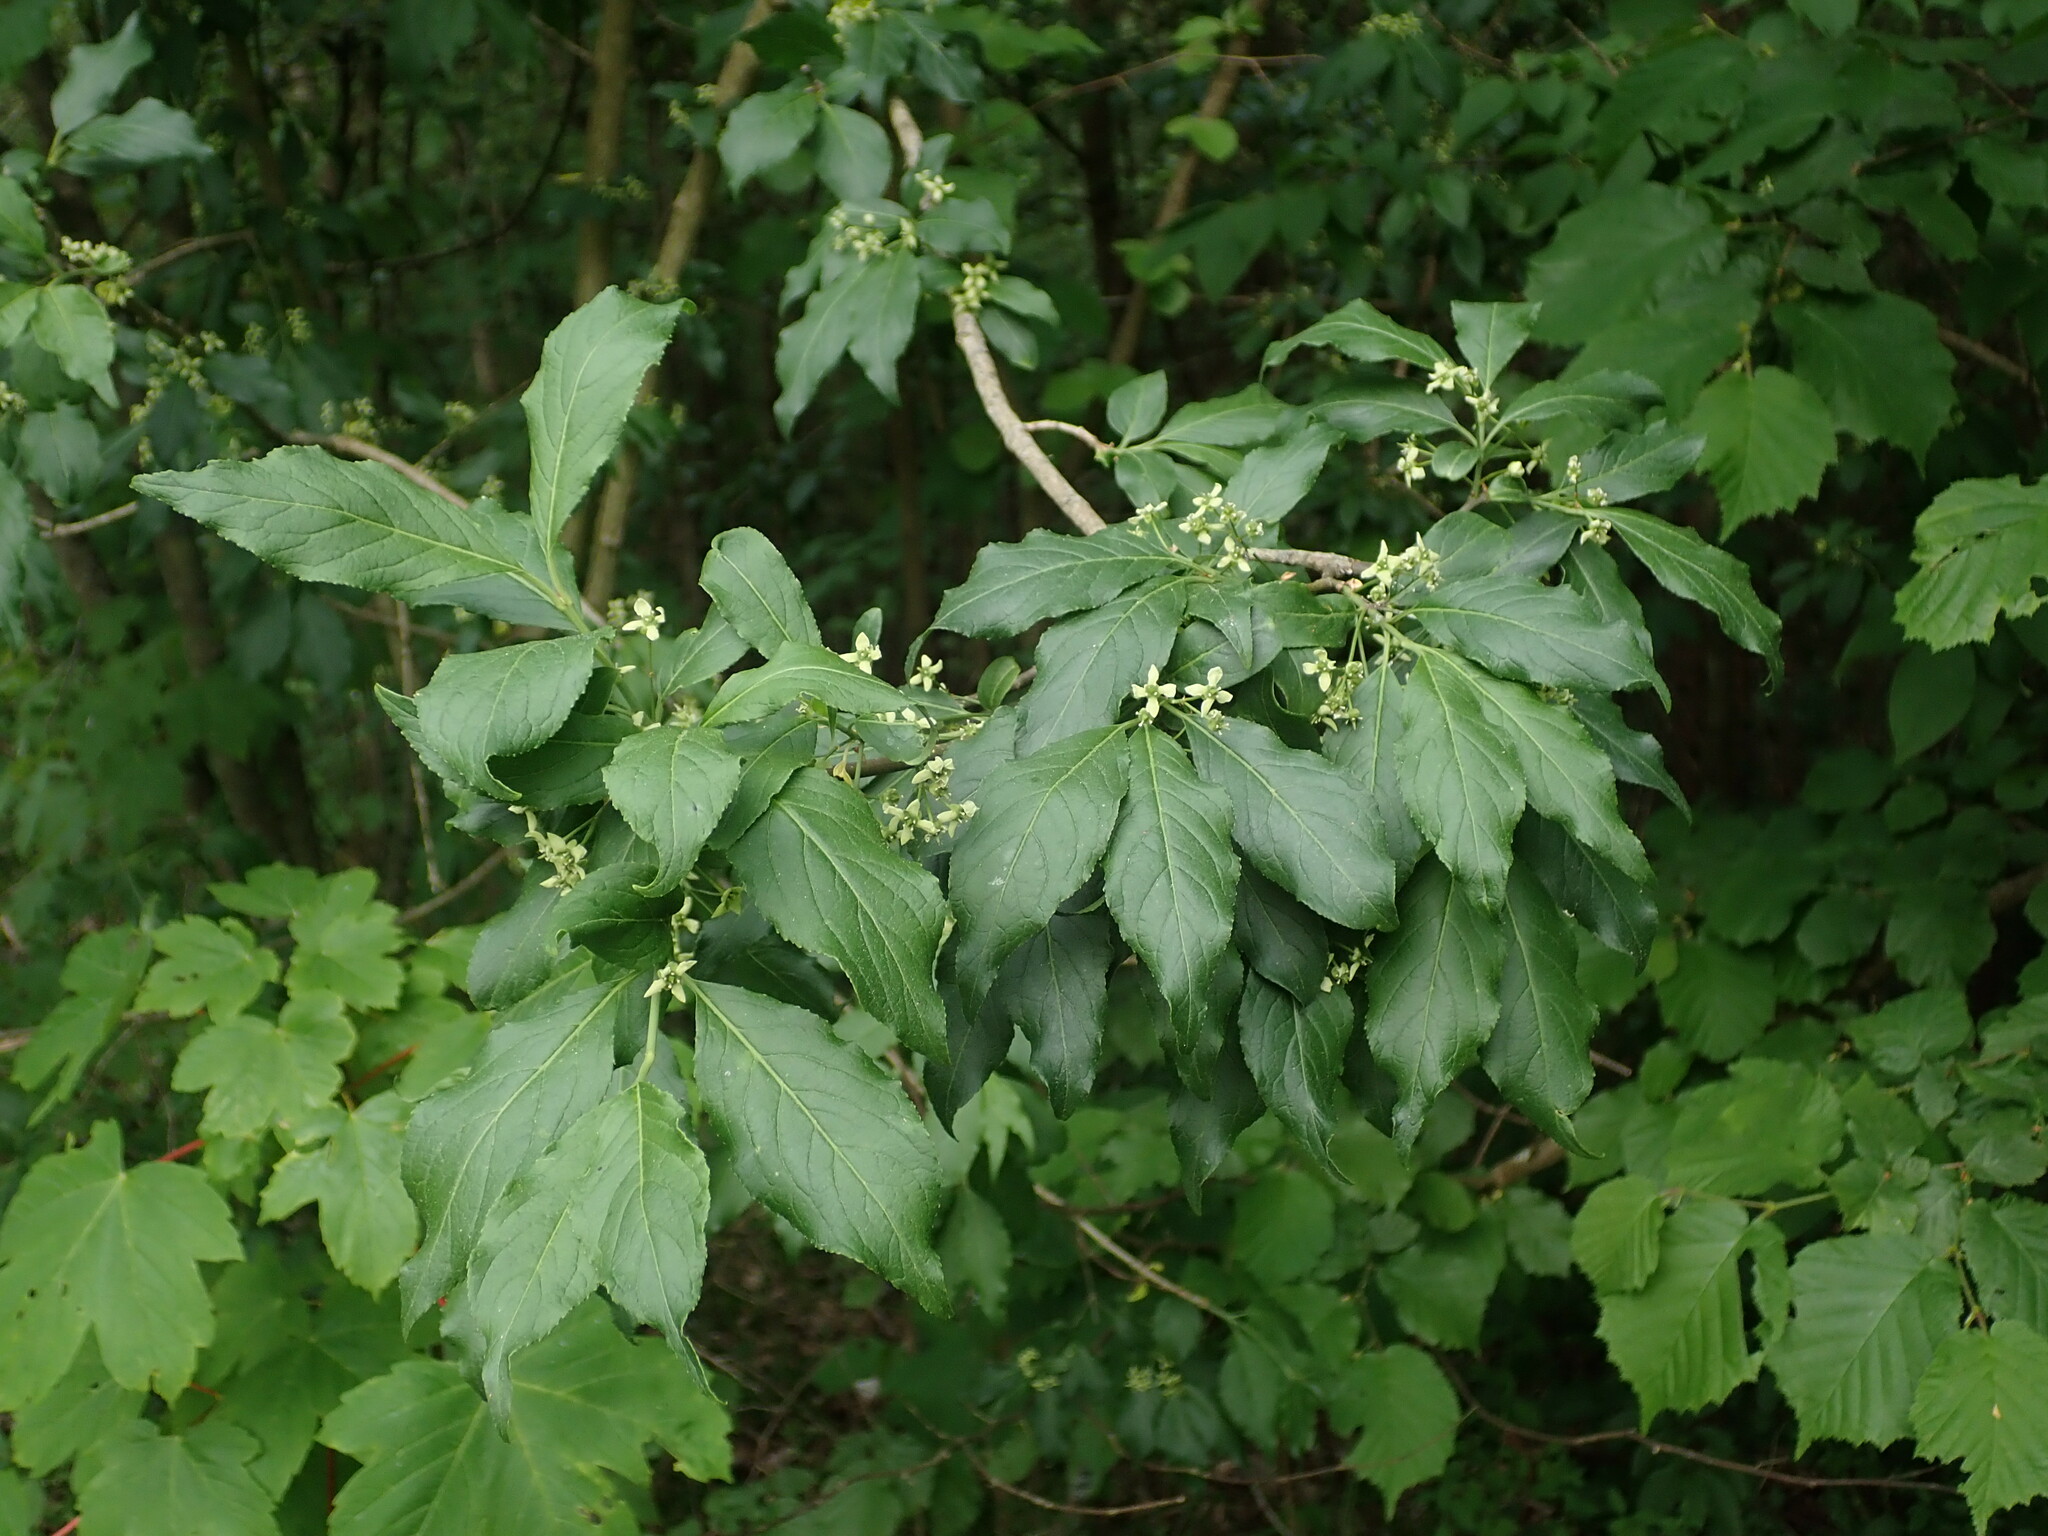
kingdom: Plantae
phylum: Tracheophyta
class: Magnoliopsida
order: Celastrales
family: Celastraceae
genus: Euonymus
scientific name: Euonymus europaeus
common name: Spindle
